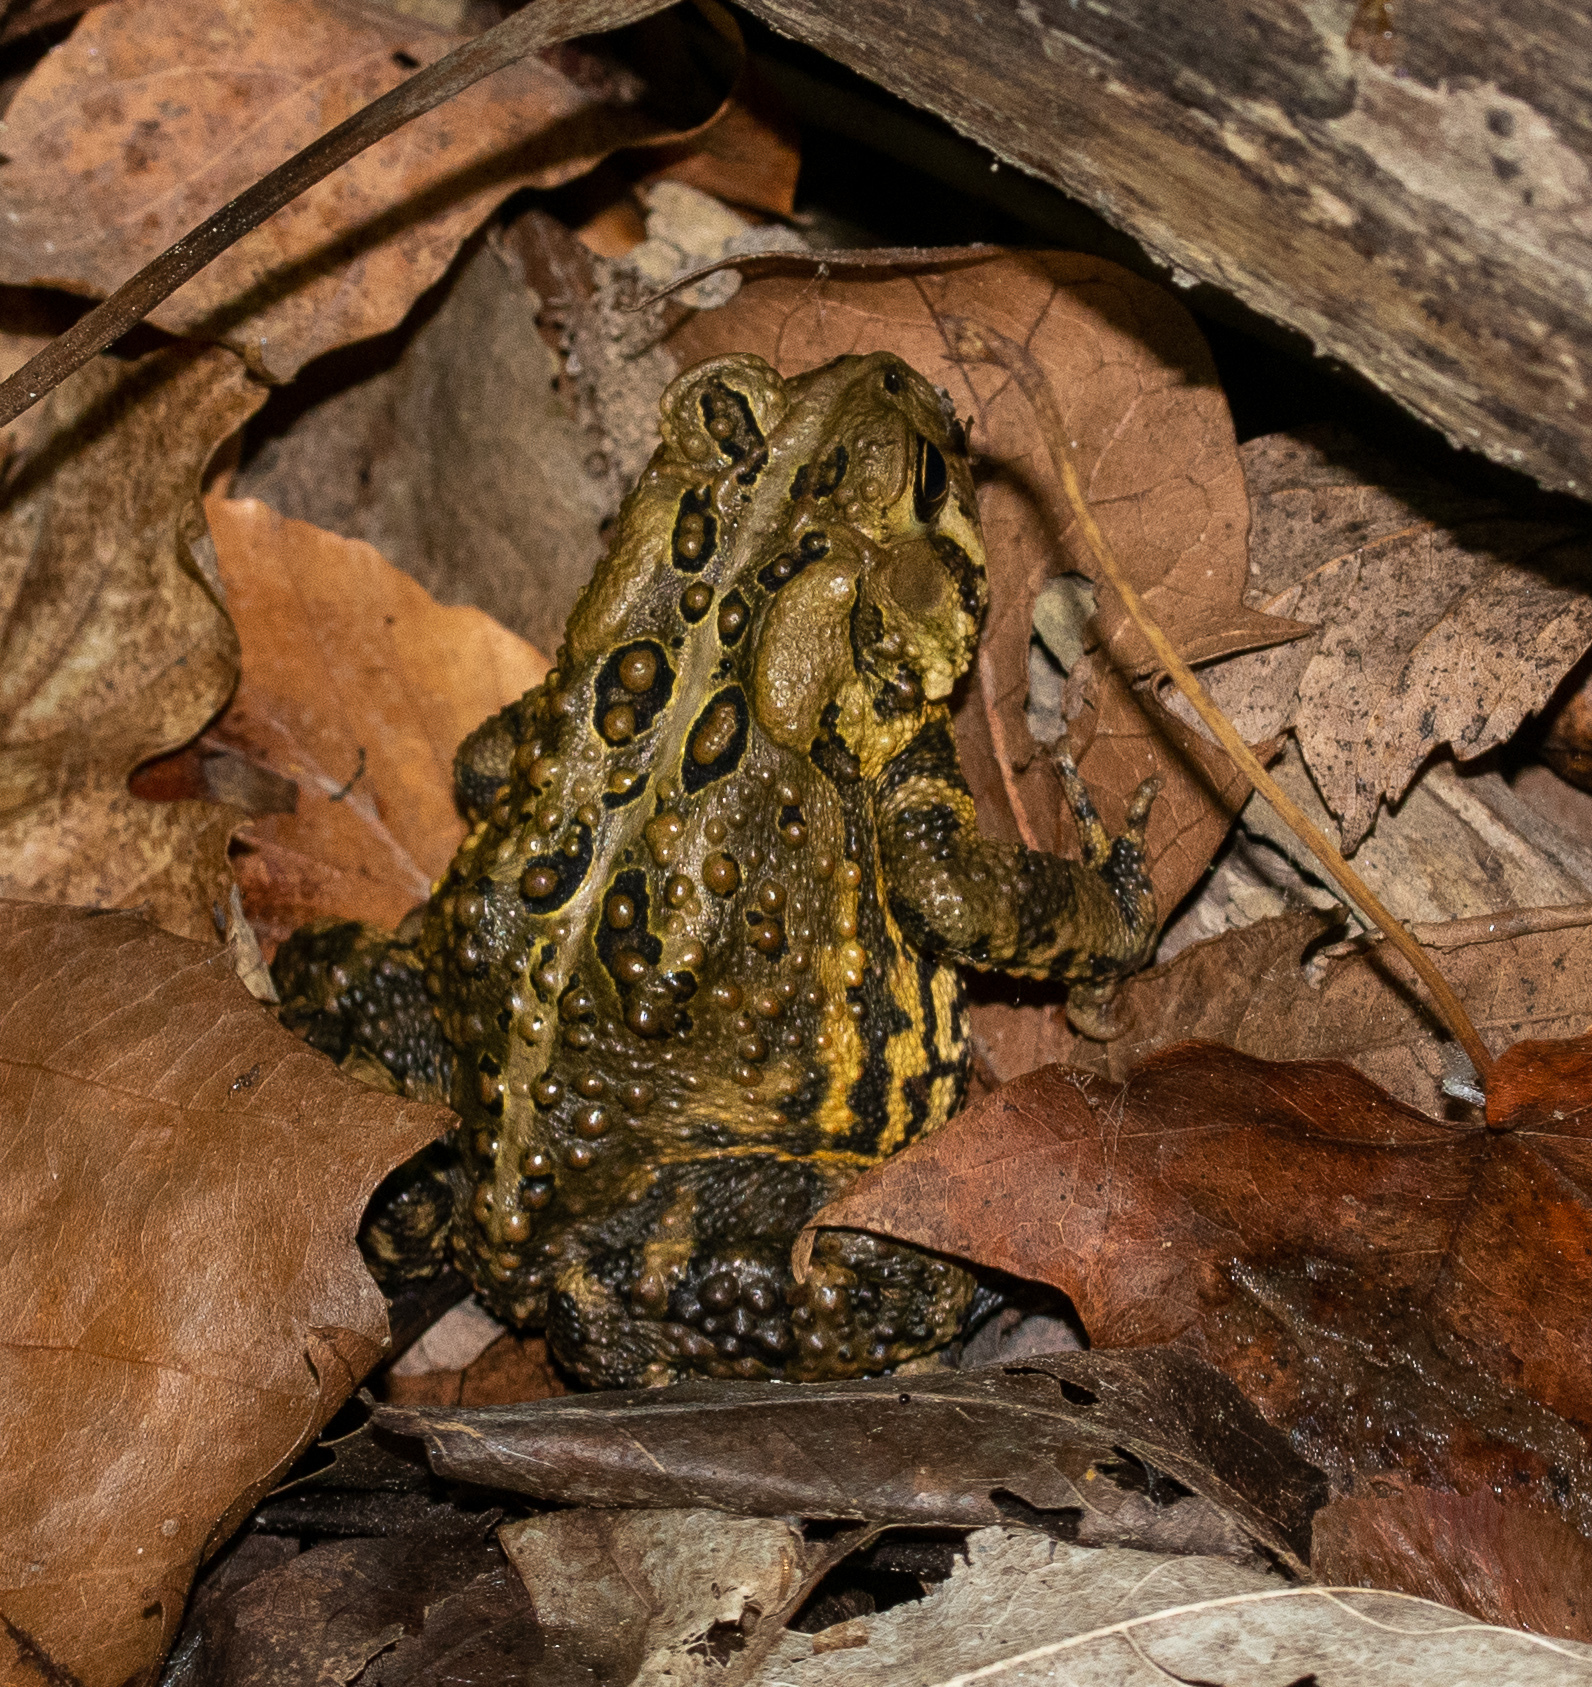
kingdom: Animalia
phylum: Chordata
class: Amphibia
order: Anura
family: Bufonidae
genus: Anaxyrus
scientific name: Anaxyrus americanus
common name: American toad
